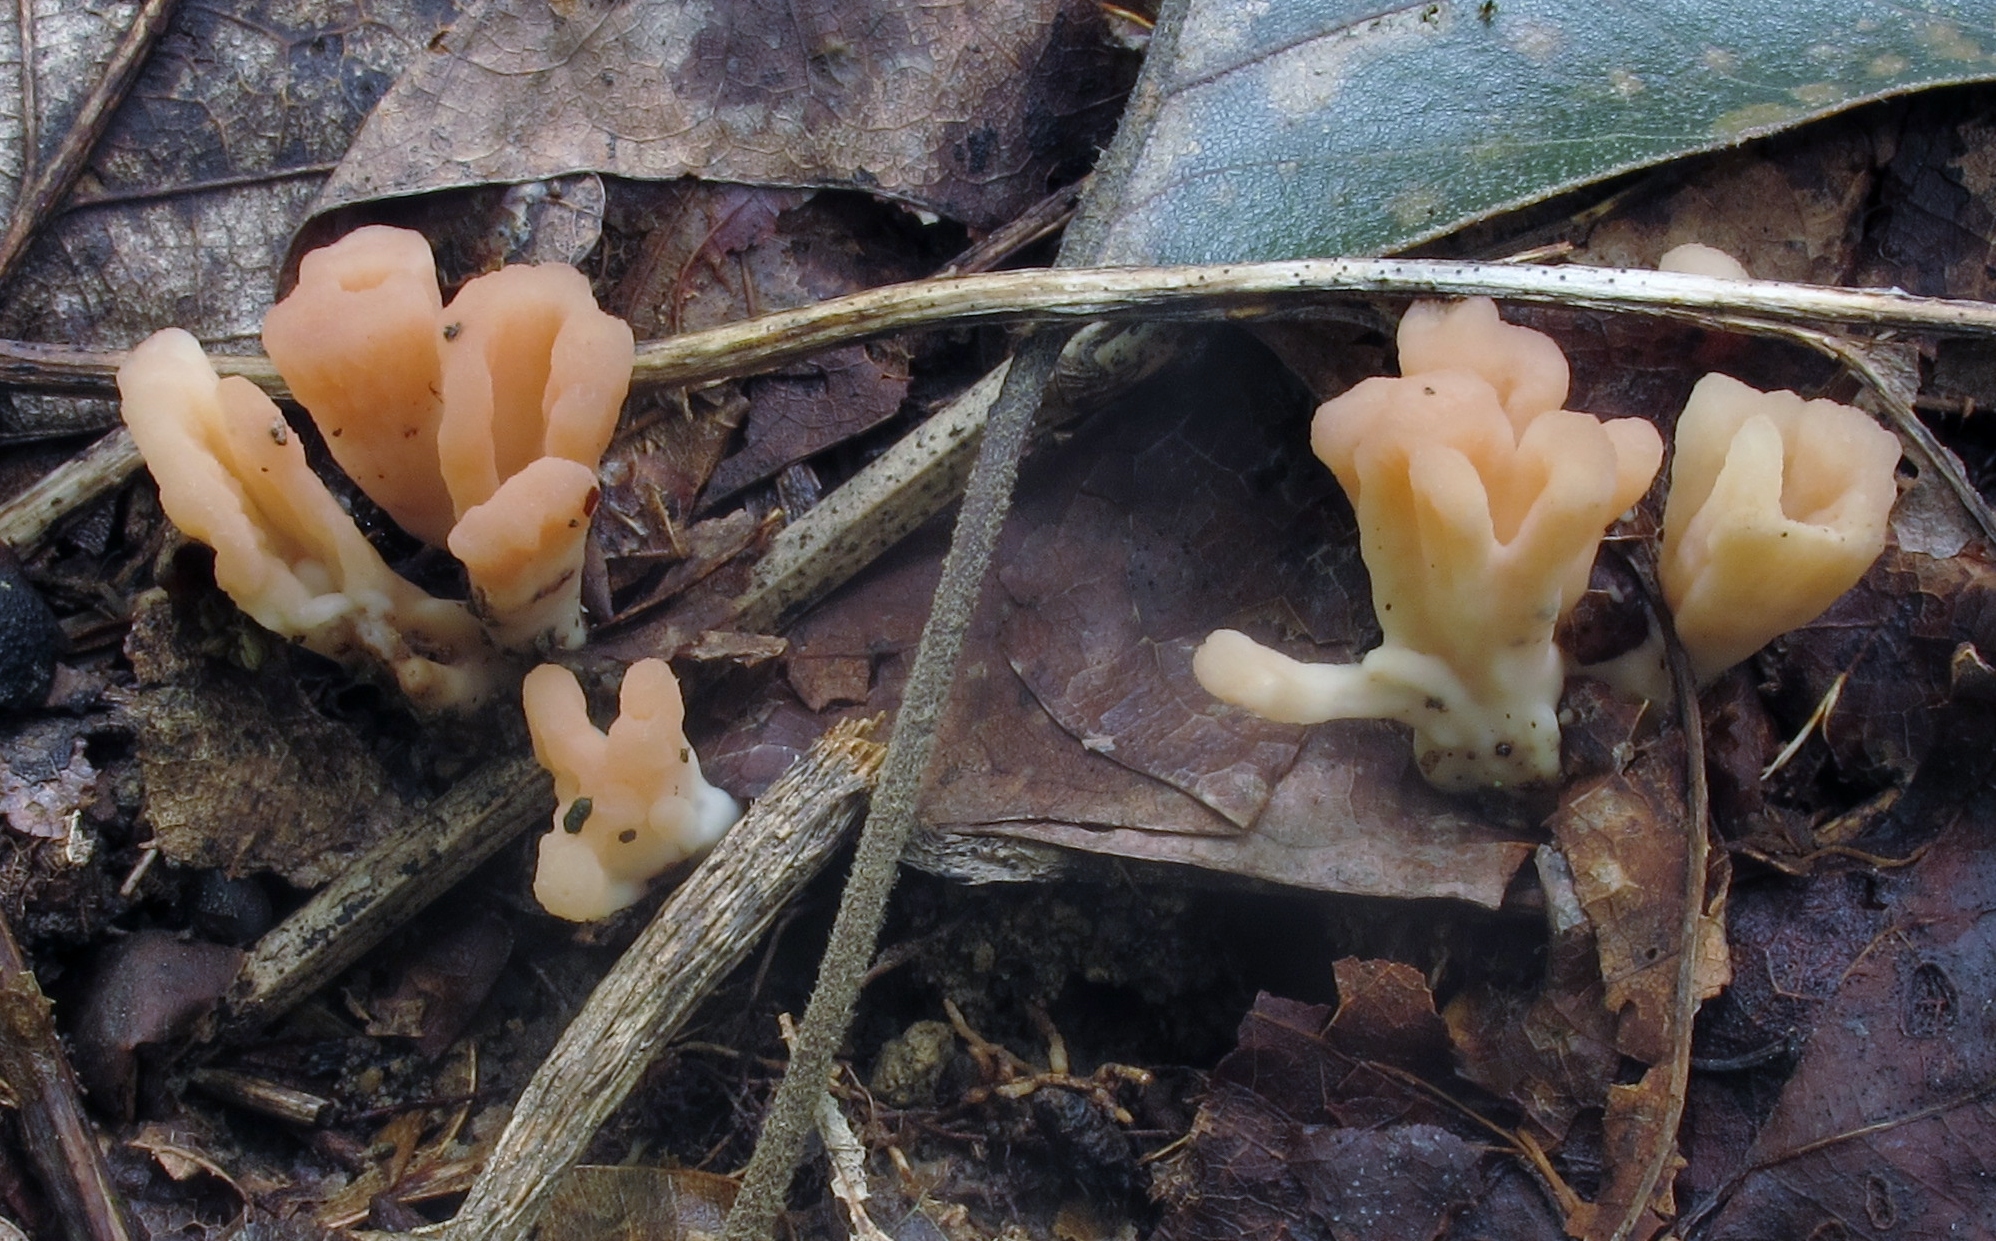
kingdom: Fungi
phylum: Basidiomycota
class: Agaricomycetes
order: Polyporales
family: Podoscyphaceae
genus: Podoscypha
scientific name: Podoscypha aculeata
